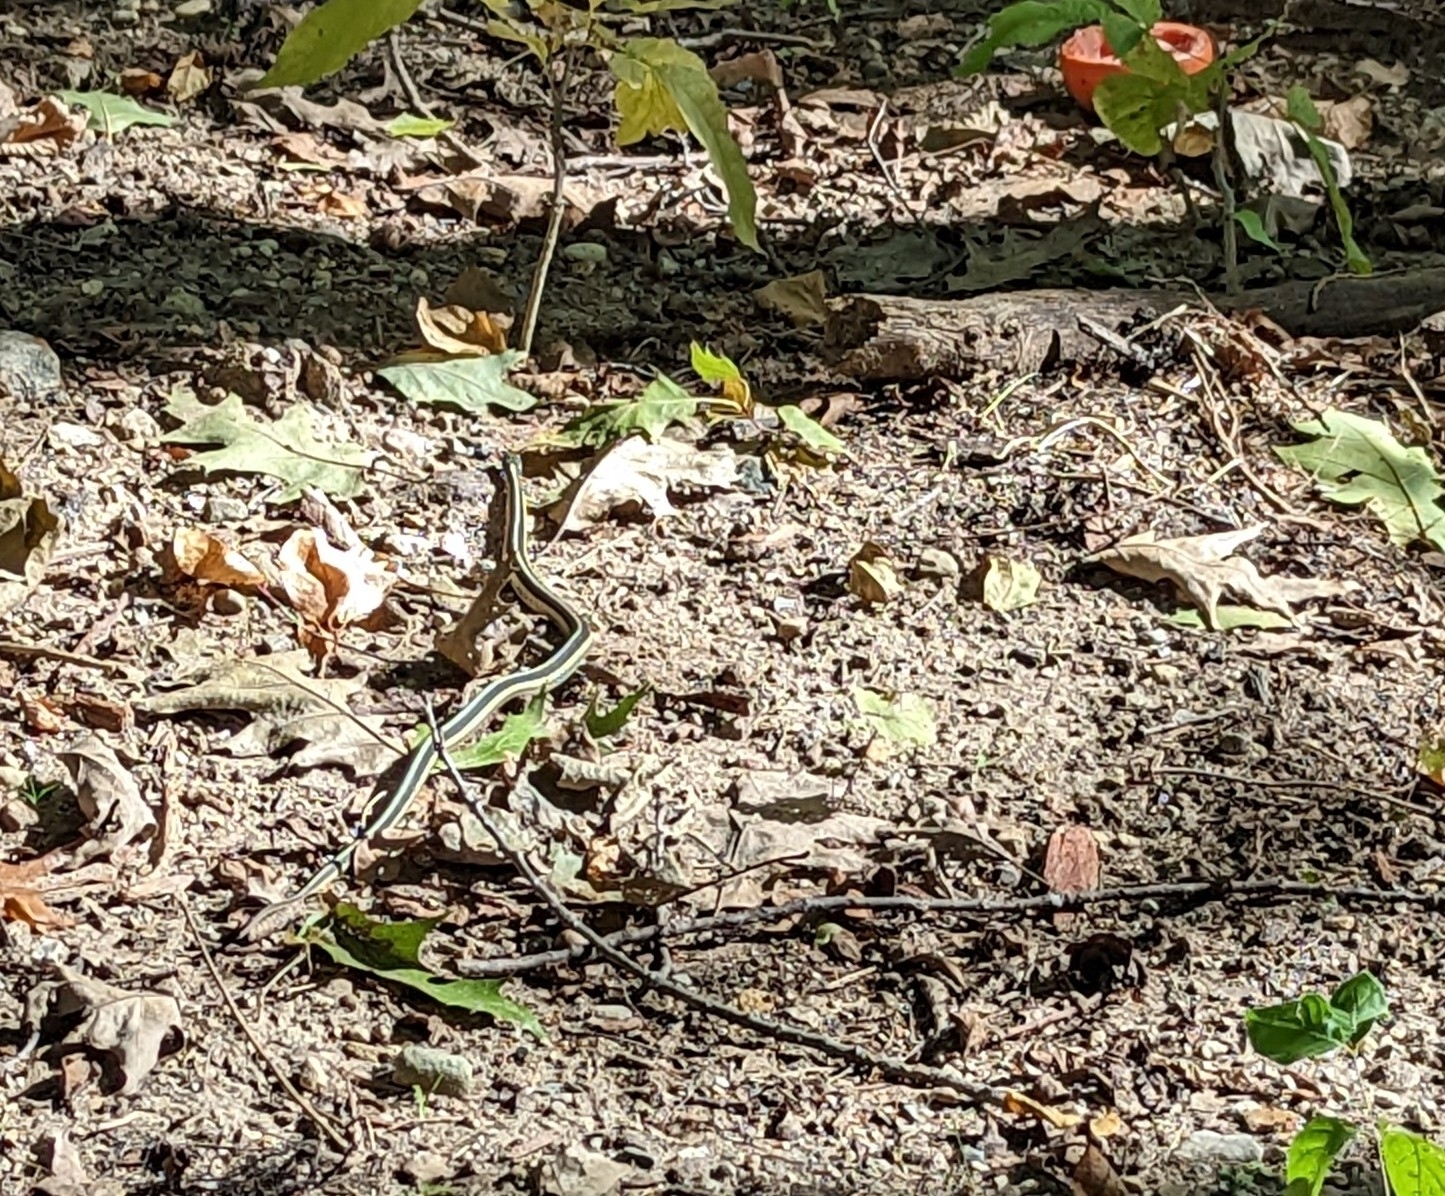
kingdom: Animalia
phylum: Chordata
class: Squamata
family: Colubridae
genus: Thamnophis
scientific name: Thamnophis sirtalis
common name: Common garter snake
